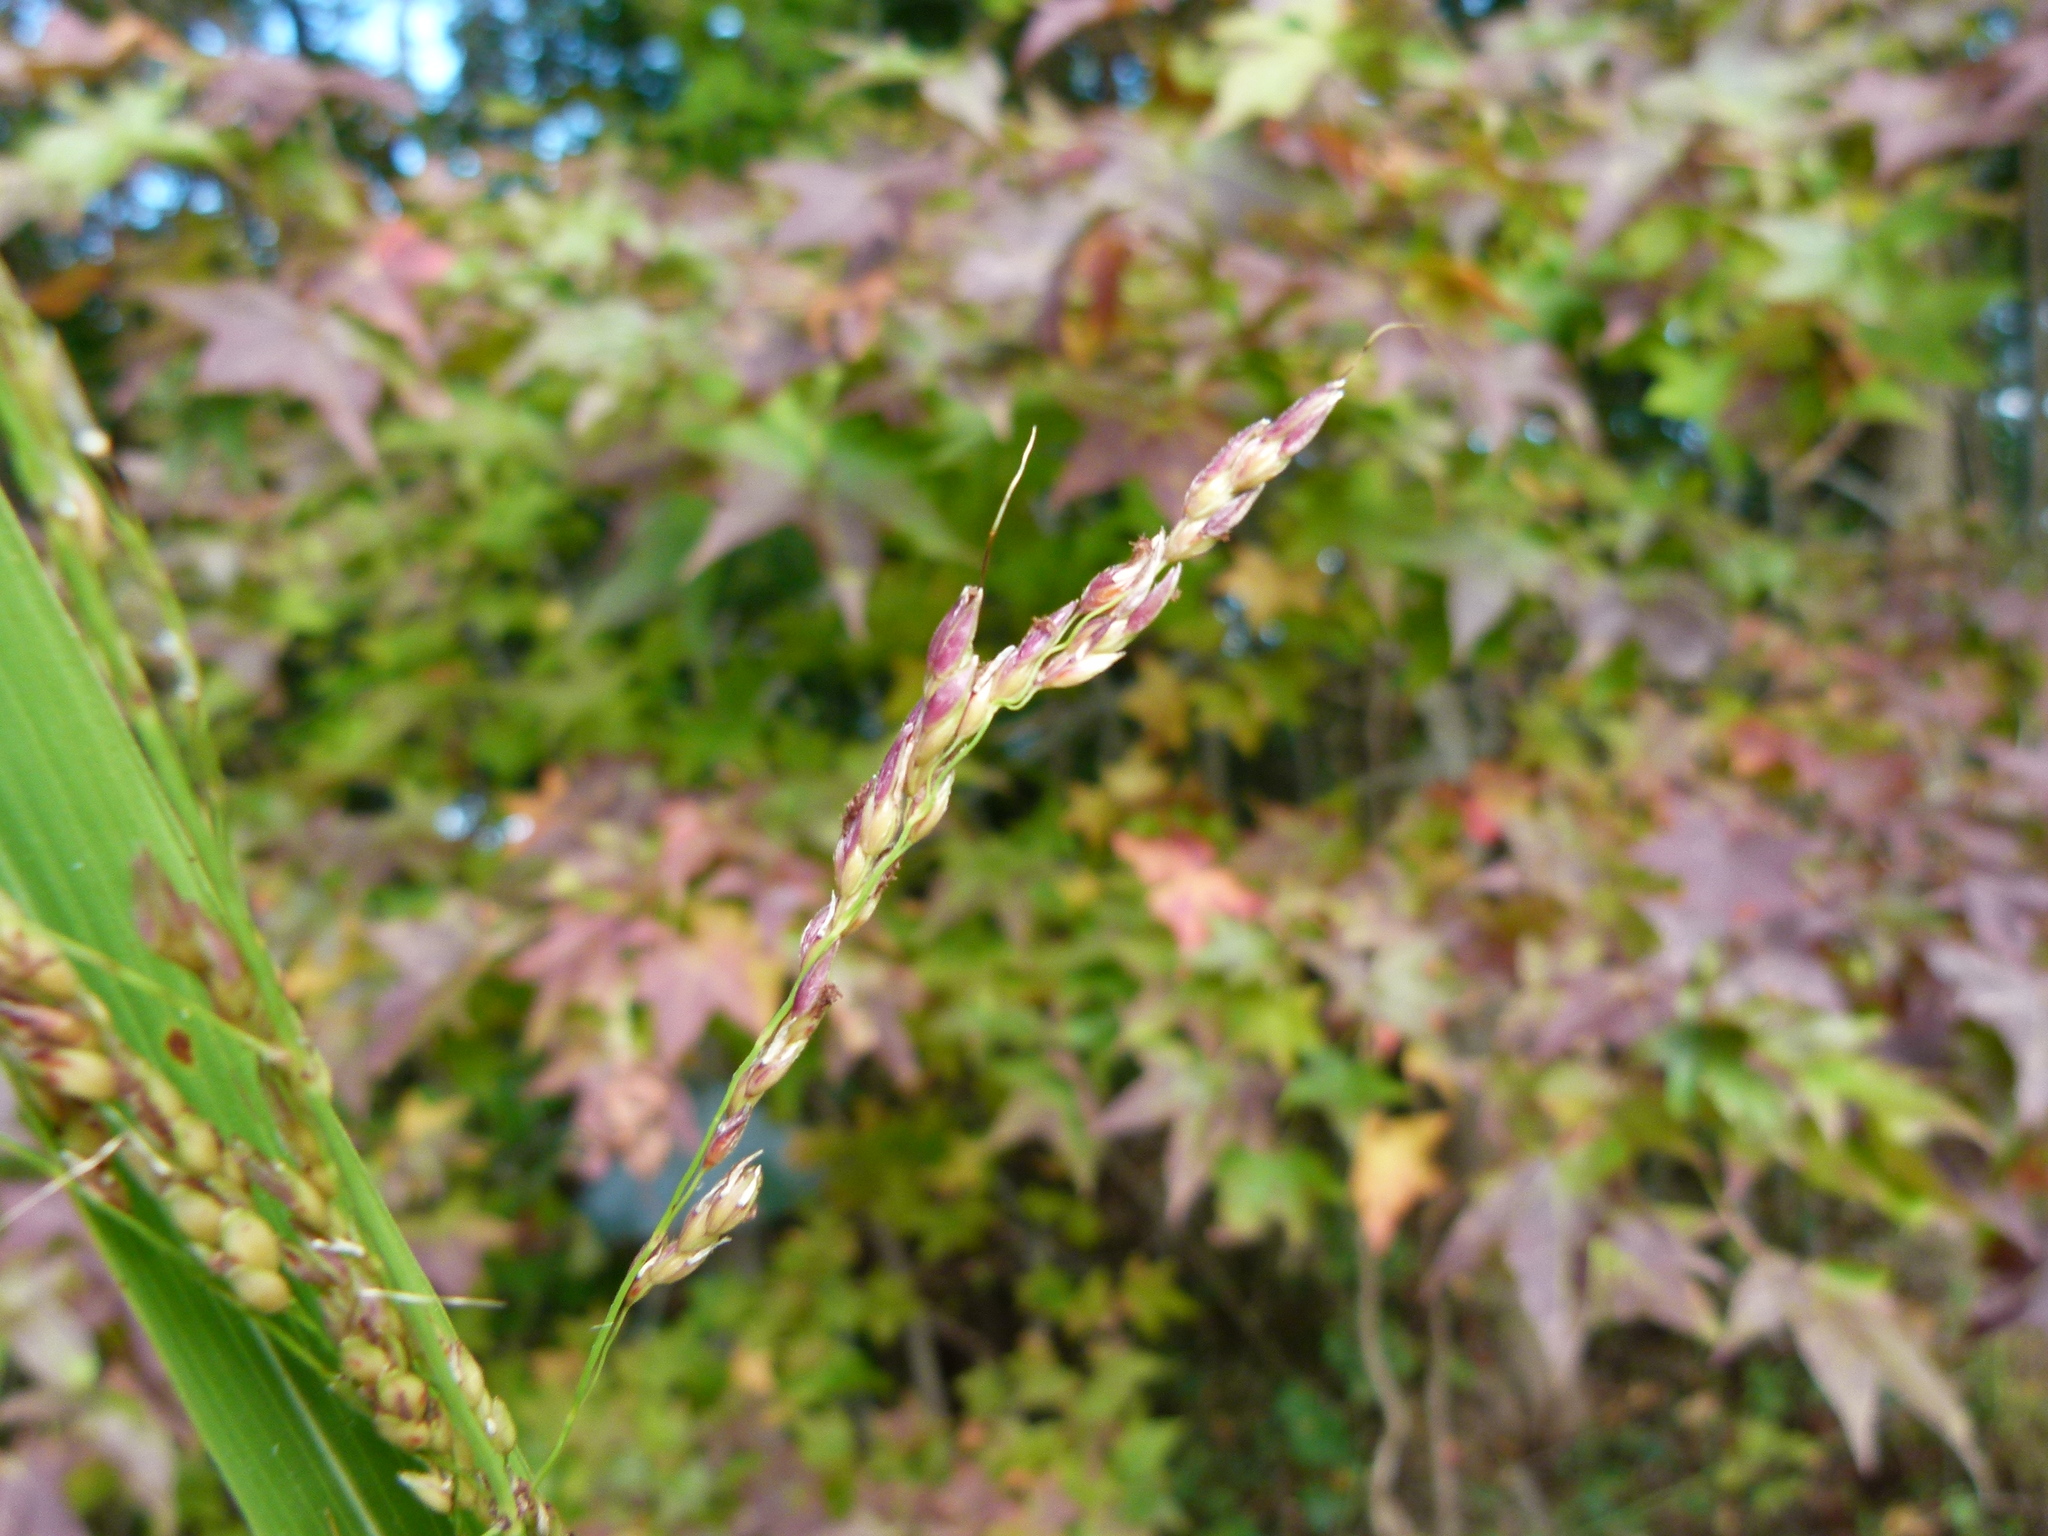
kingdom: Plantae
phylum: Tracheophyta
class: Liliopsida
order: Poales
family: Poaceae
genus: Sorghum
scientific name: Sorghum halepense
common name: Johnson-grass
